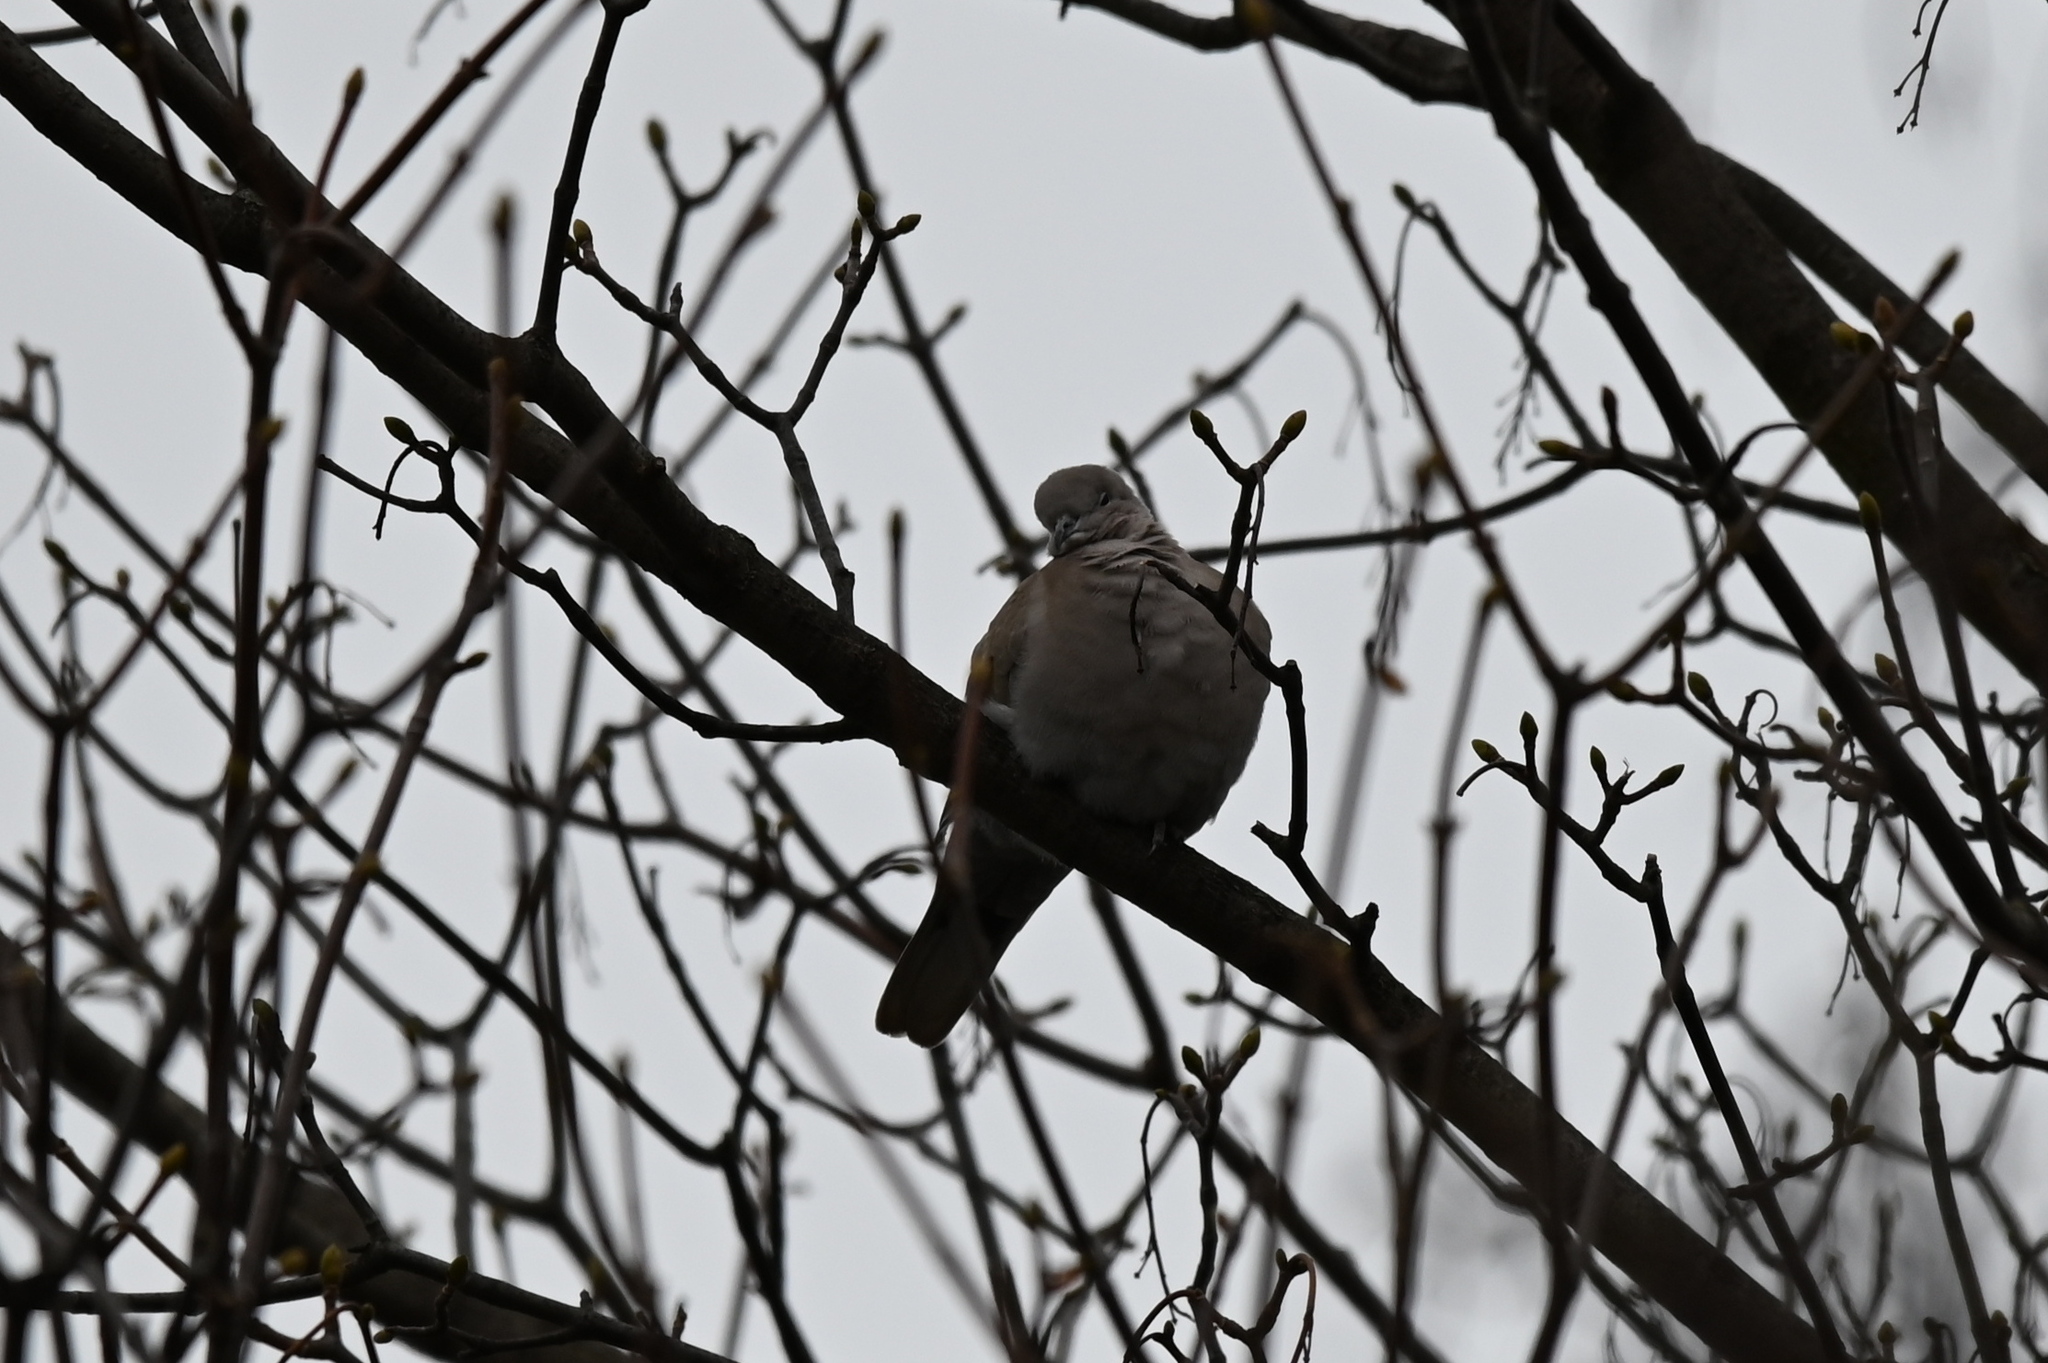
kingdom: Animalia
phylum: Chordata
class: Aves
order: Columbiformes
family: Columbidae
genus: Streptopelia
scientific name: Streptopelia decaocto
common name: Eurasian collared dove
